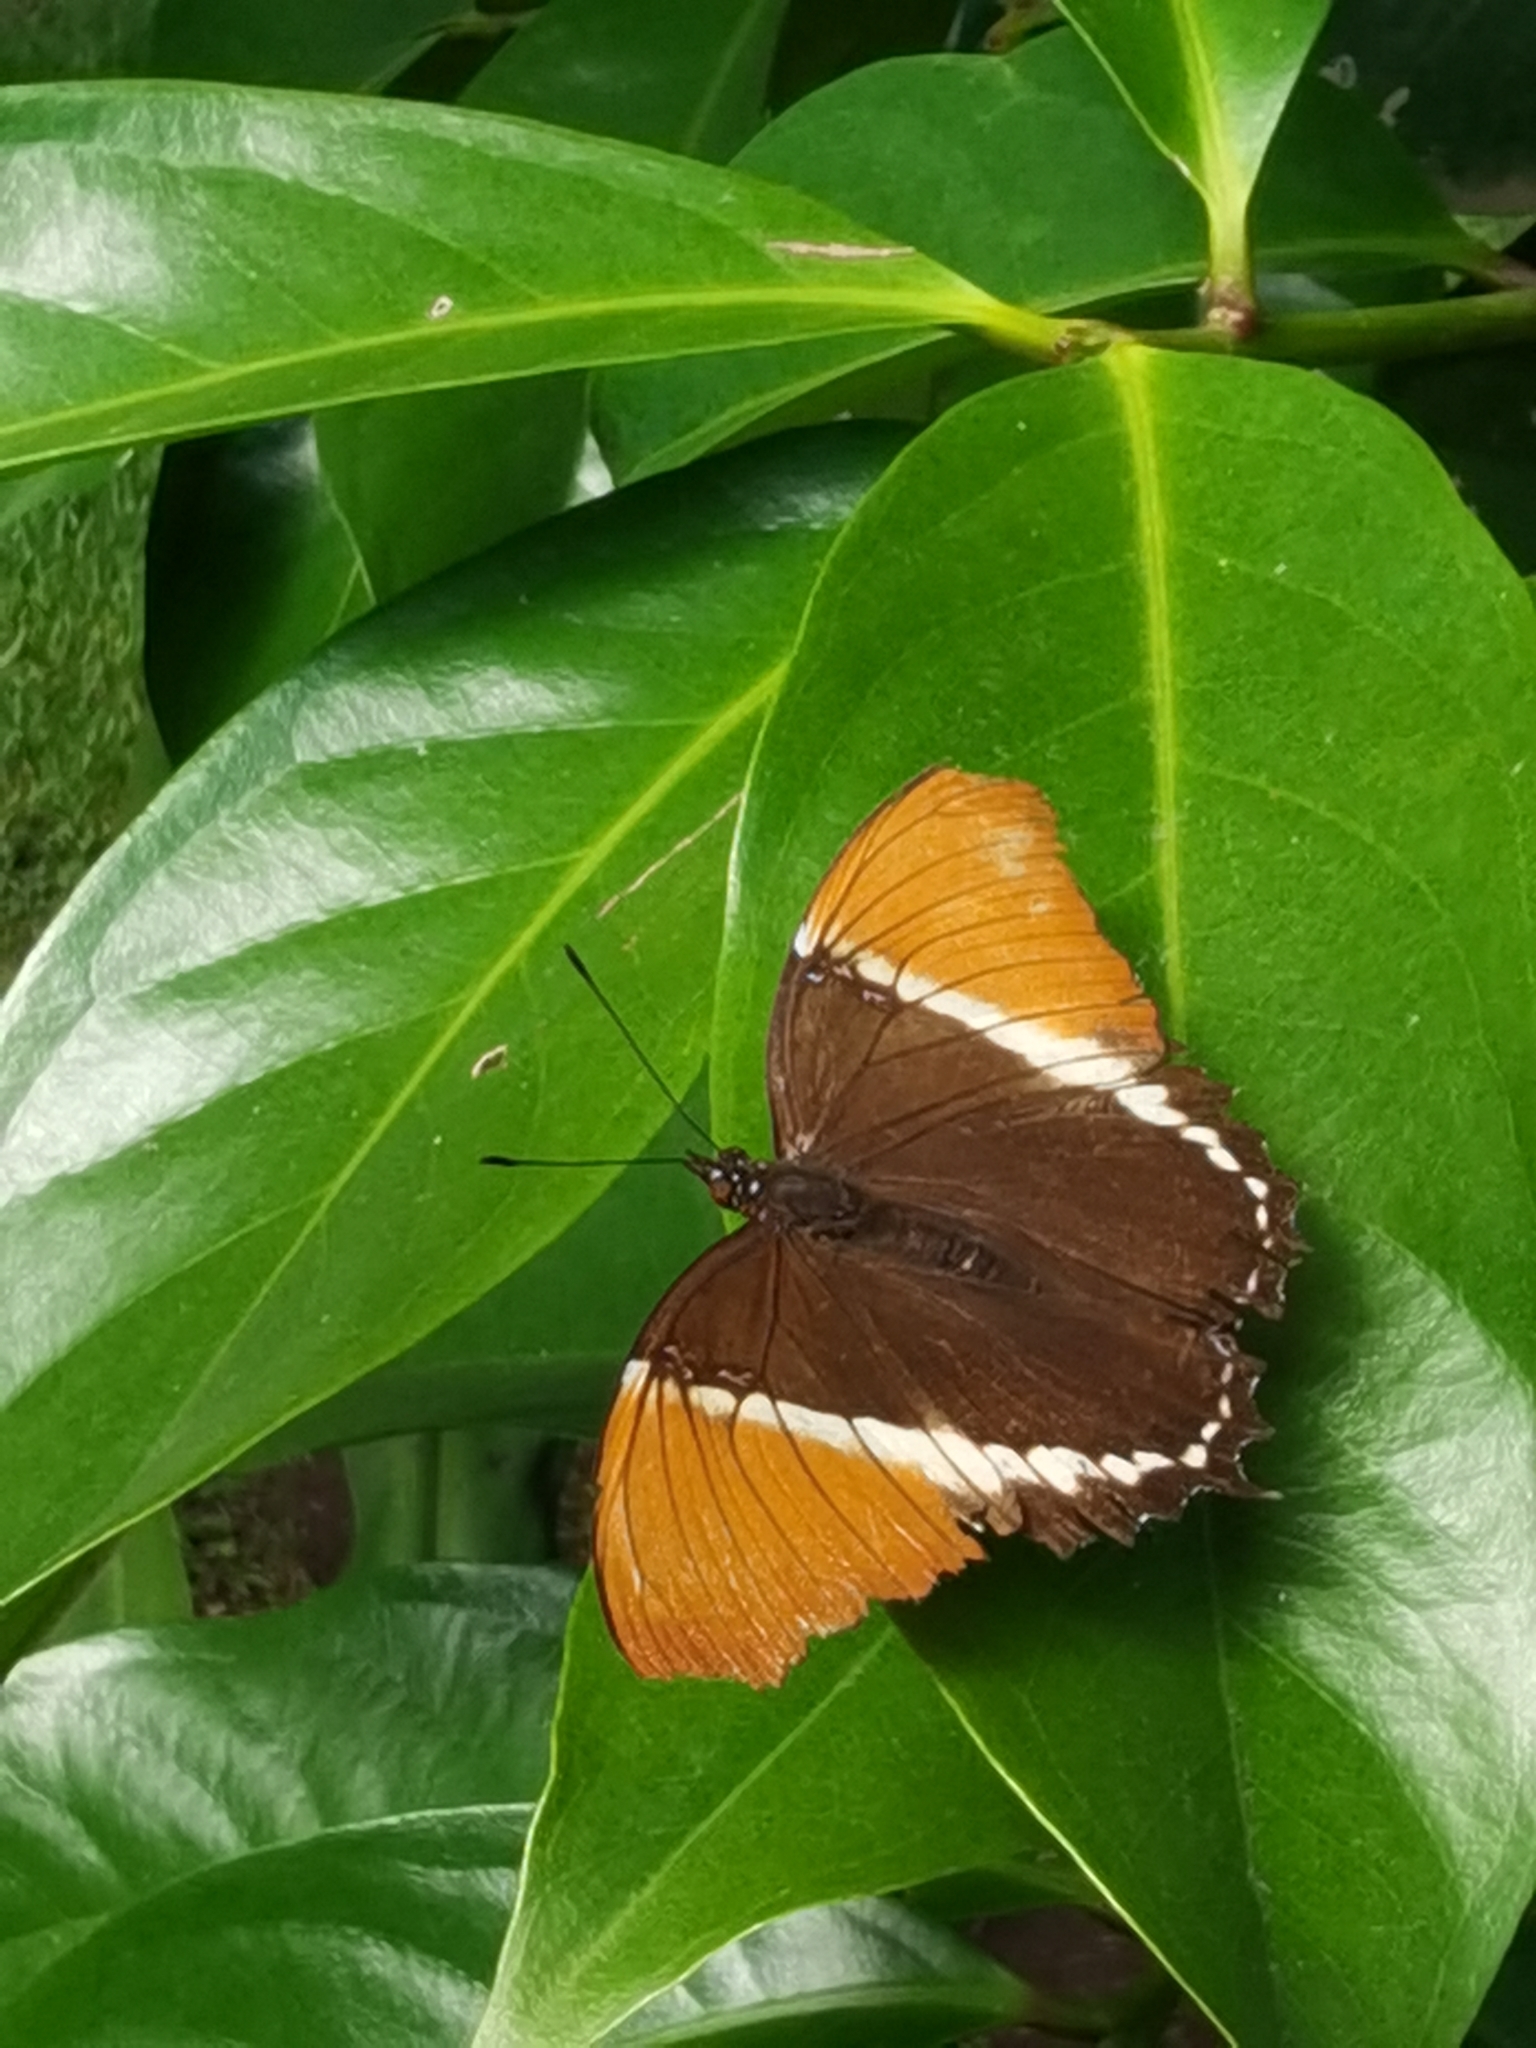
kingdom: Animalia
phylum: Arthropoda
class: Insecta
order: Lepidoptera
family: Nymphalidae
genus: Siproeta
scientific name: Siproeta epaphus
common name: Rusty-tipped page
